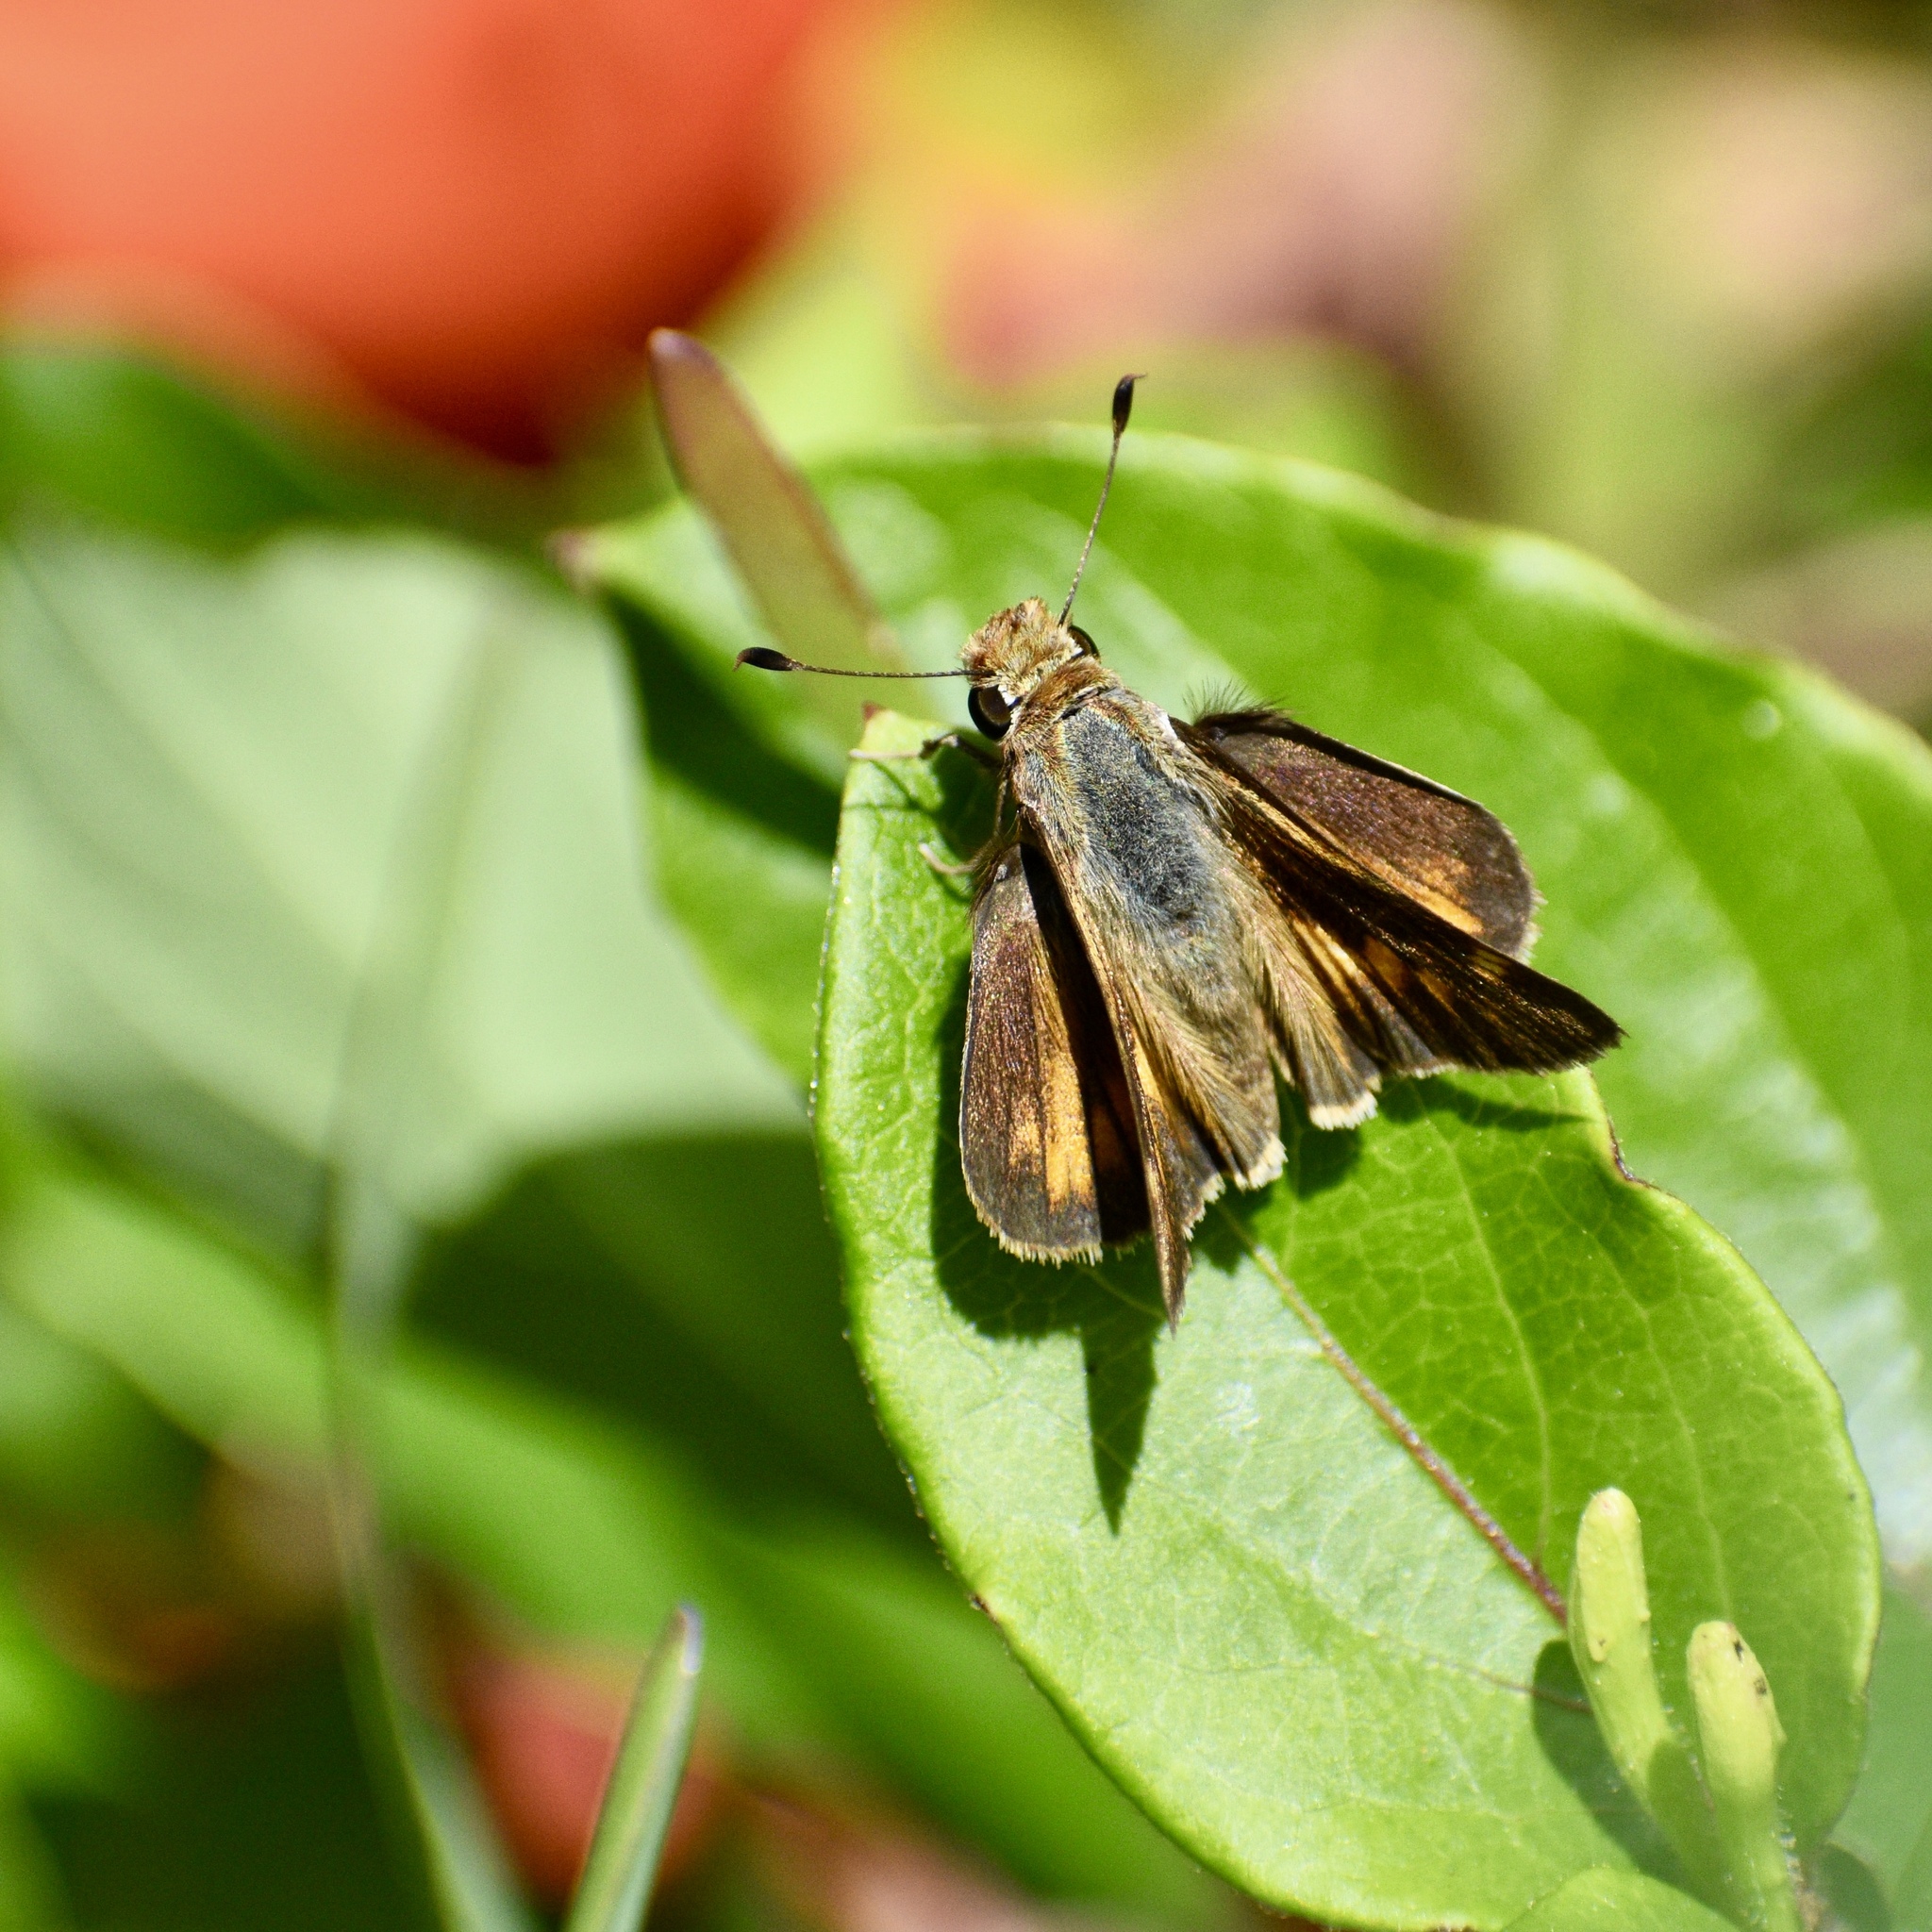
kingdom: Animalia
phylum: Arthropoda
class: Insecta
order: Lepidoptera
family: Hesperiidae
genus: Lon
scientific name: Lon melane
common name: Umber skipper
